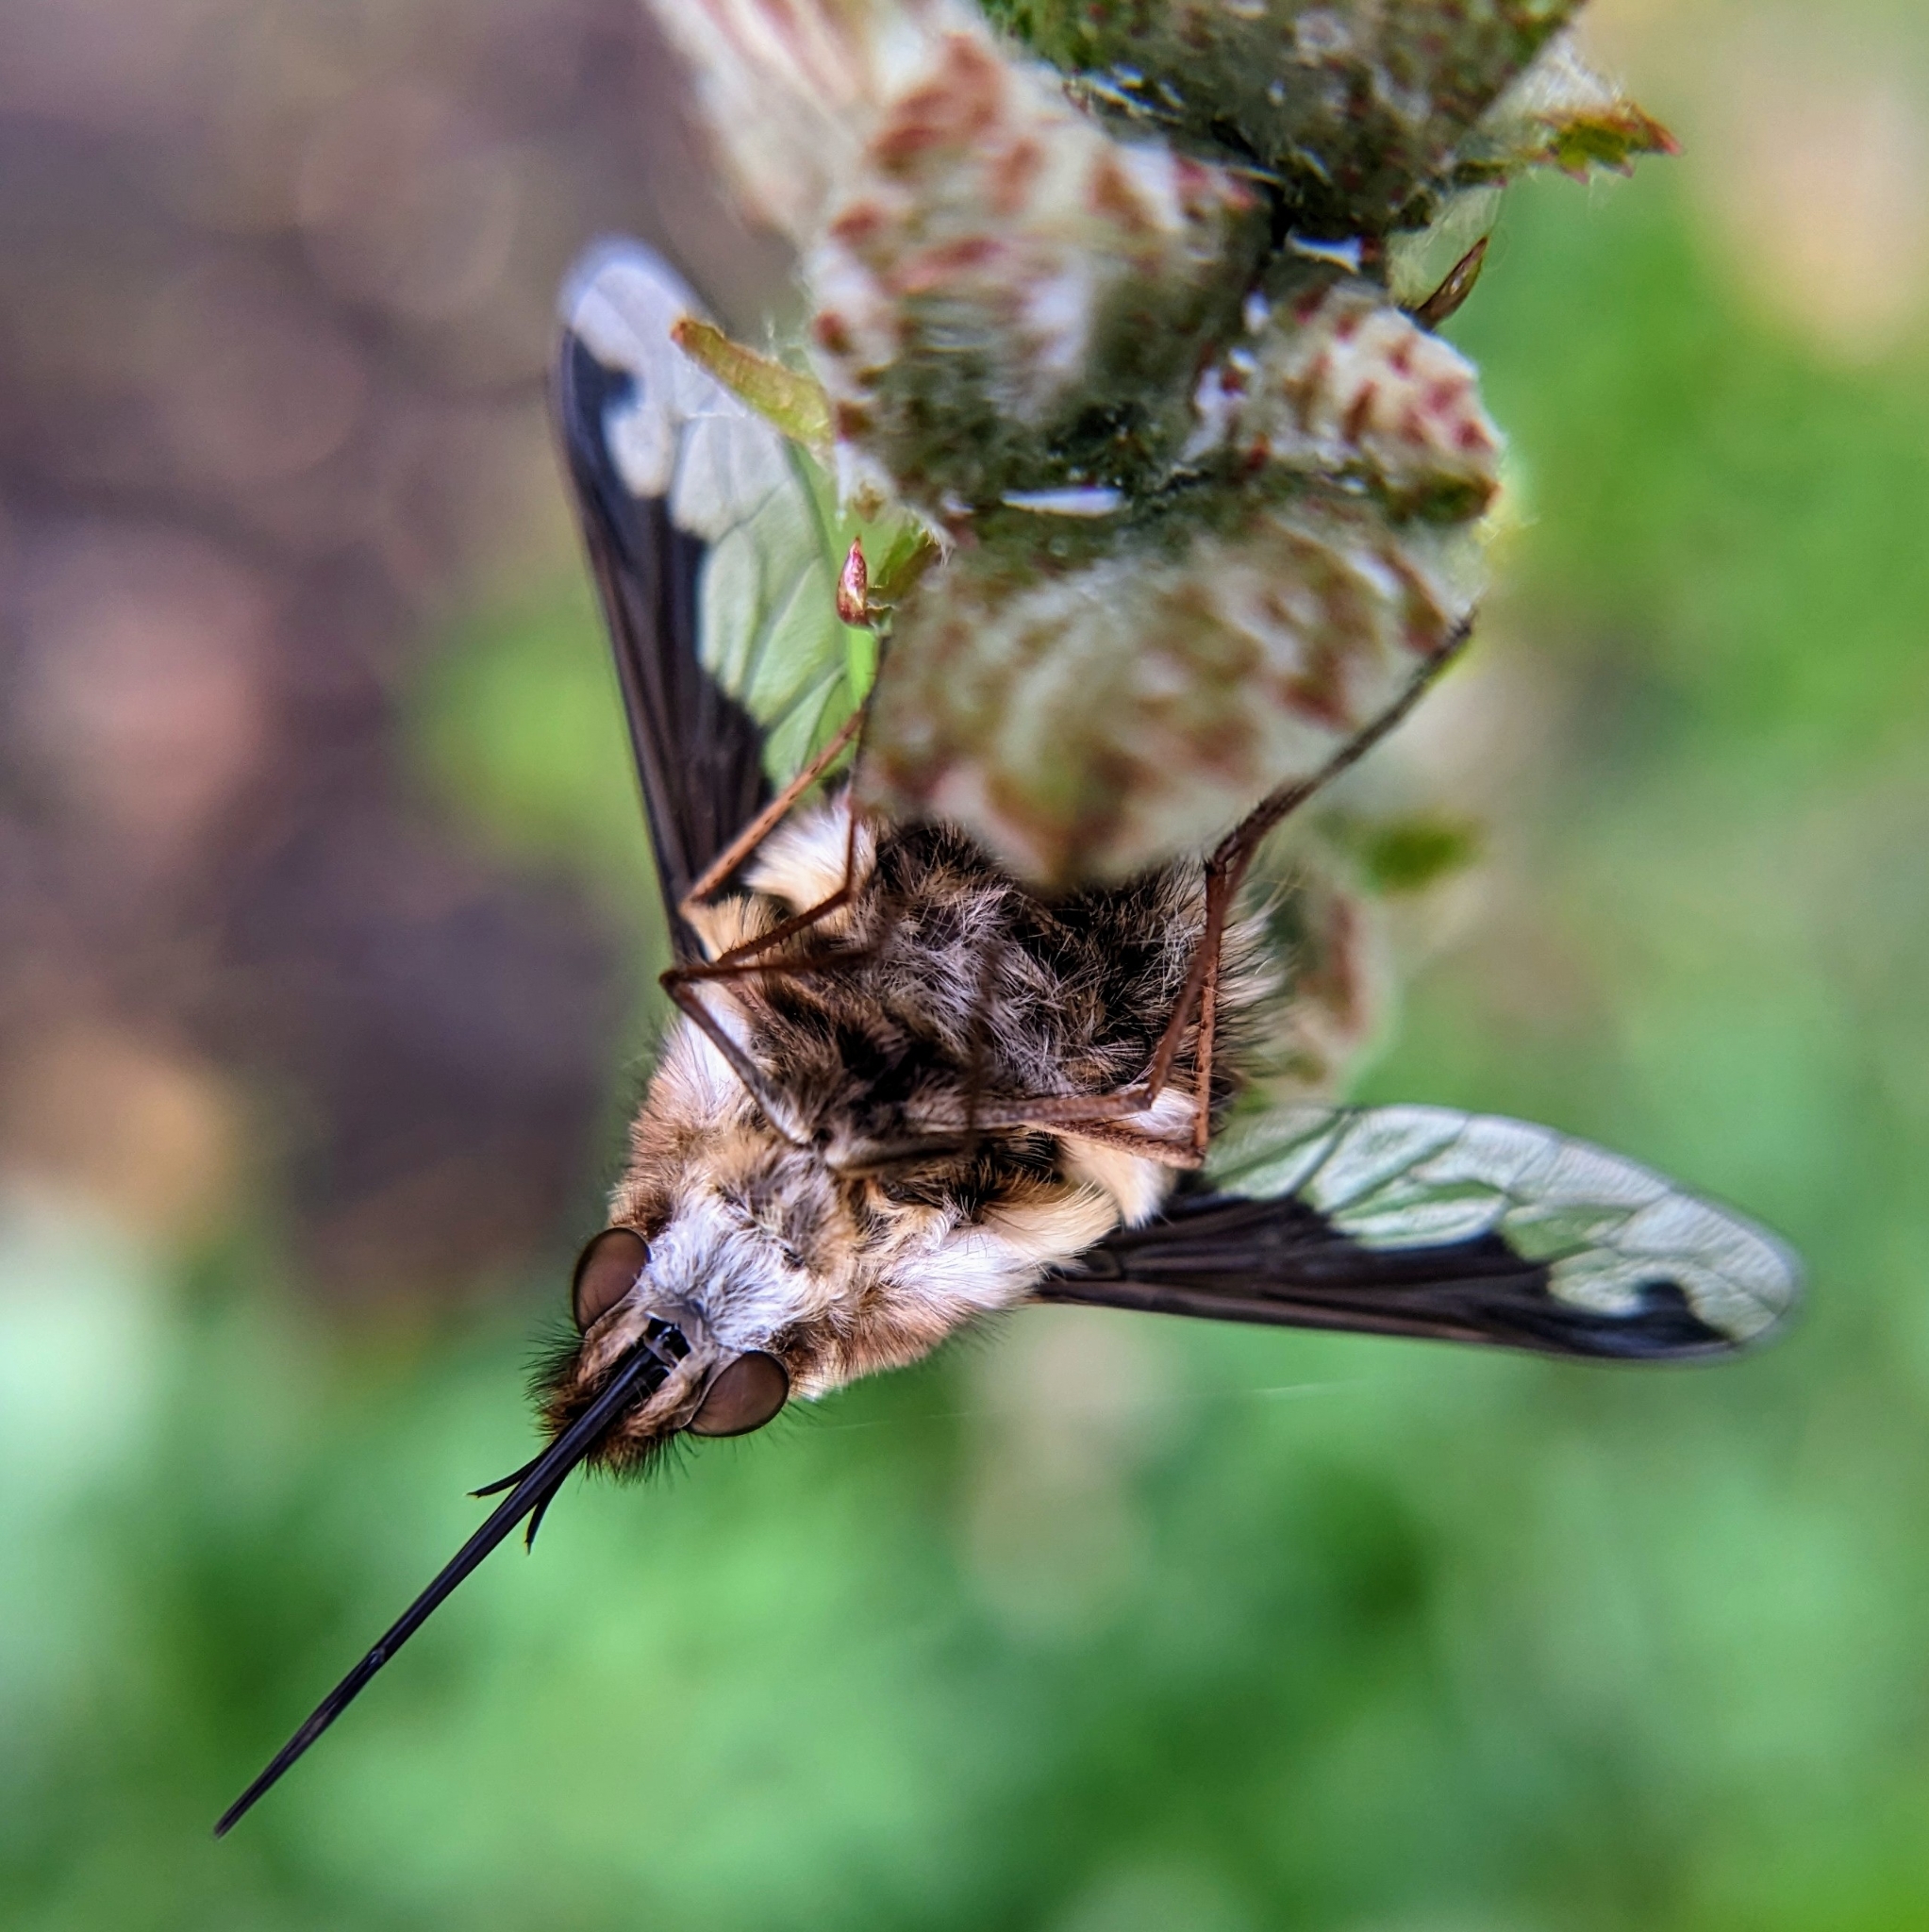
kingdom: Animalia
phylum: Arthropoda
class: Insecta
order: Diptera
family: Bombyliidae
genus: Bombylius
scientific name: Bombylius major
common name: Bee fly
